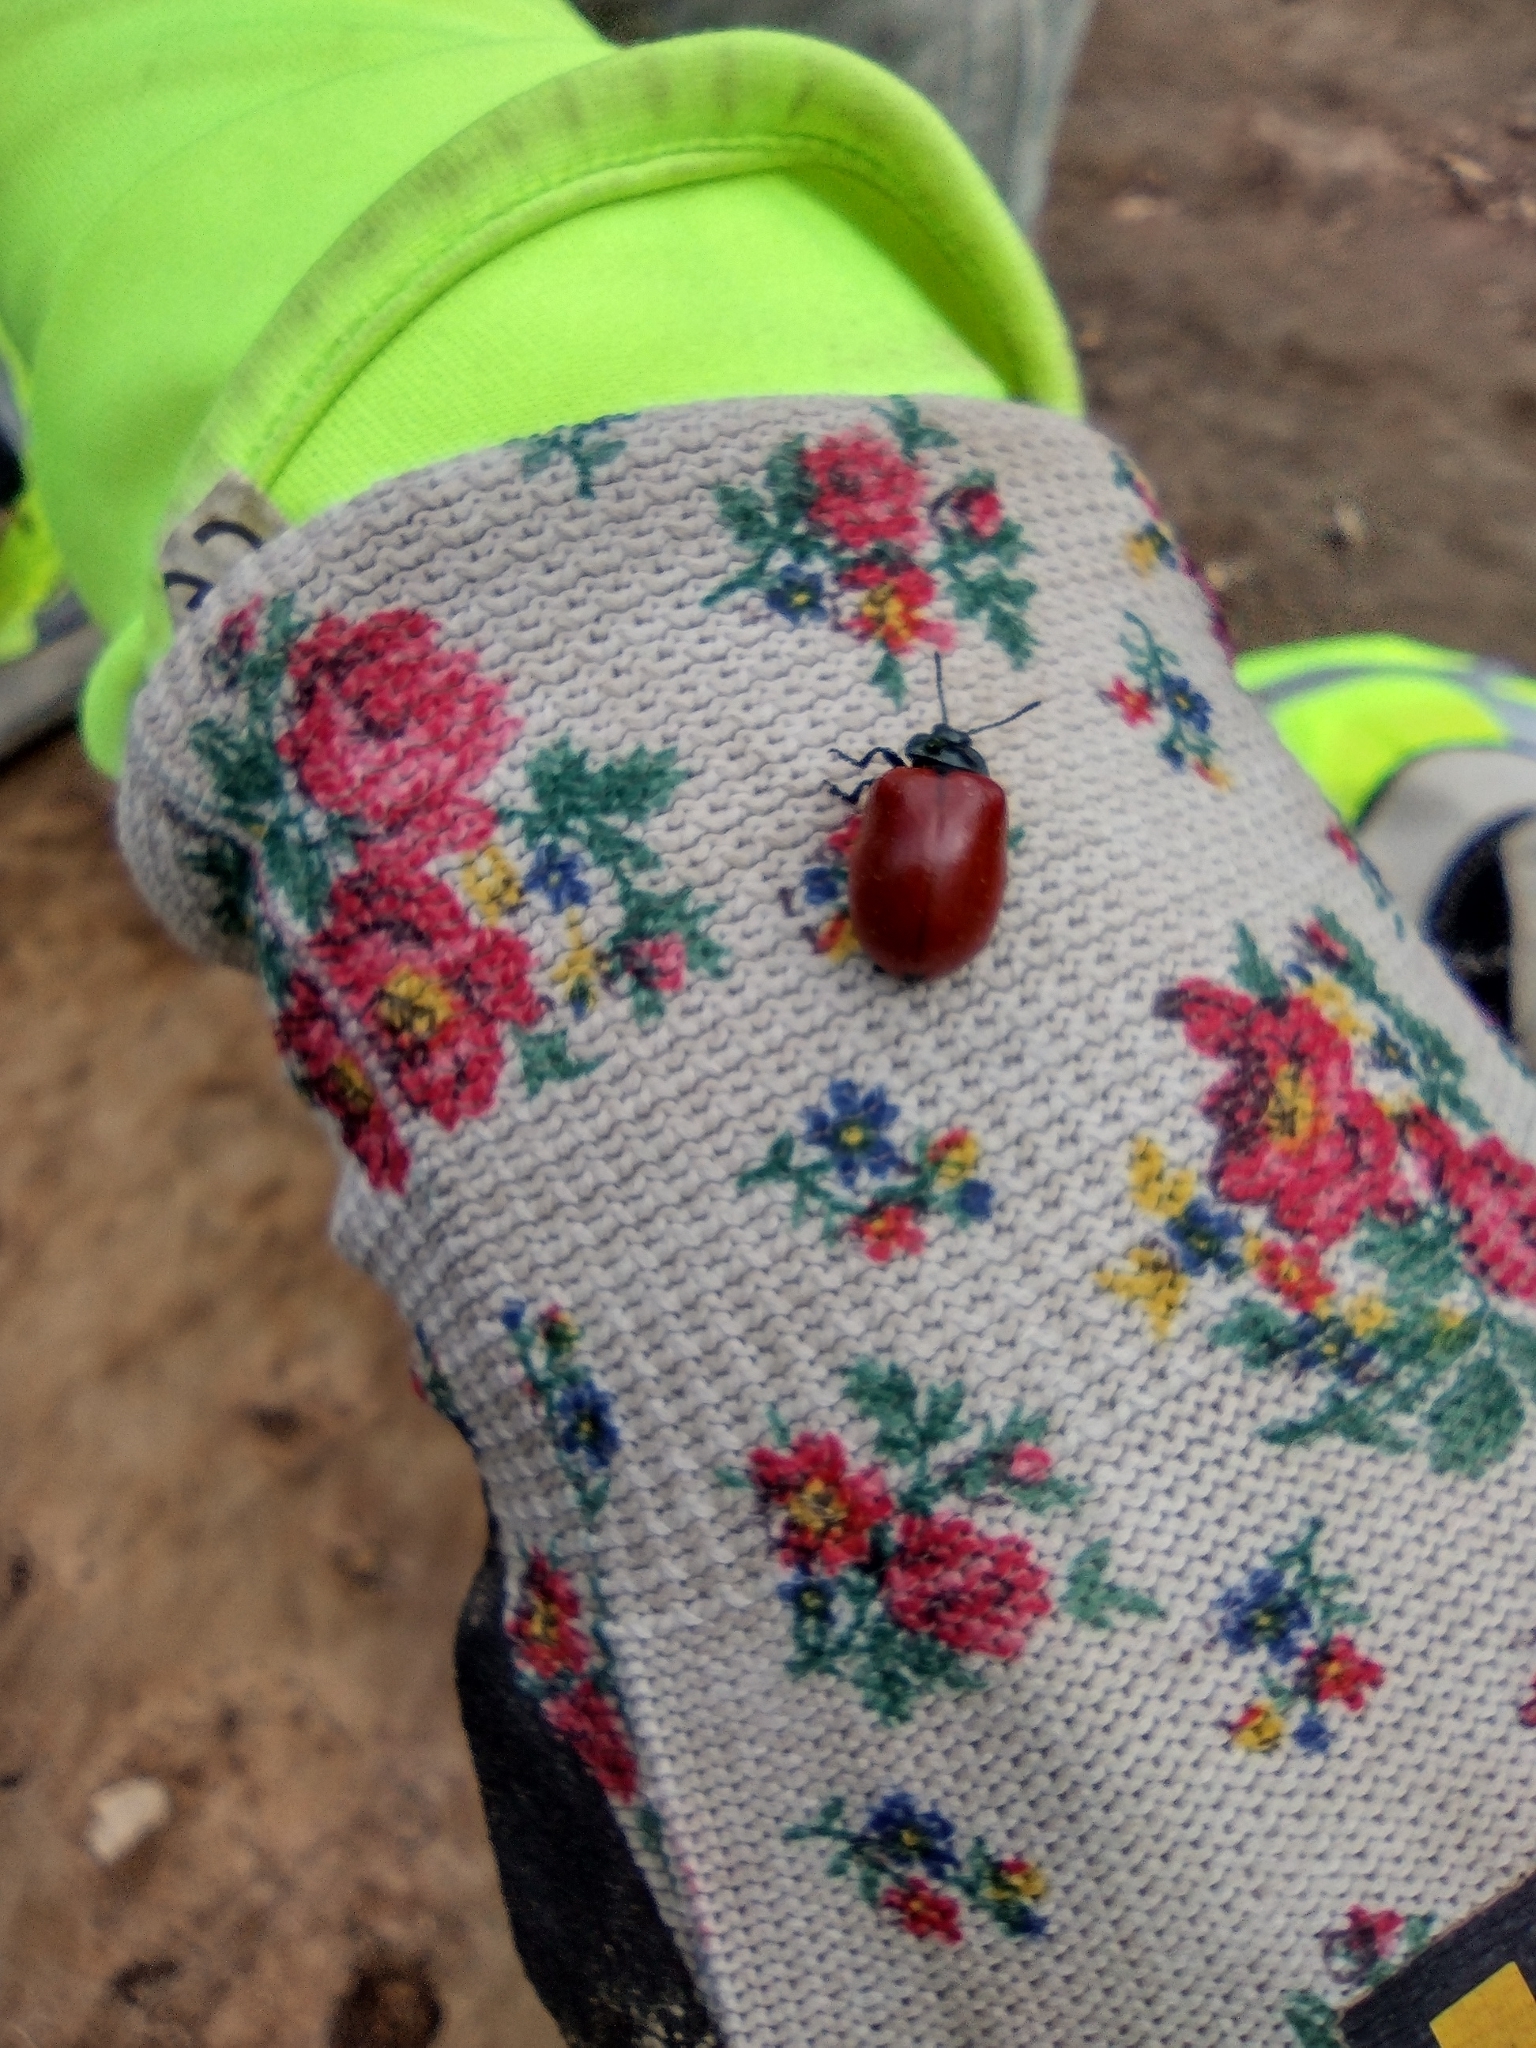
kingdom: Animalia
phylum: Arthropoda
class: Insecta
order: Coleoptera
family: Chrysomelidae
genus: Chrysomela
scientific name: Chrysomela populi
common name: Red poplar leaf beetle
